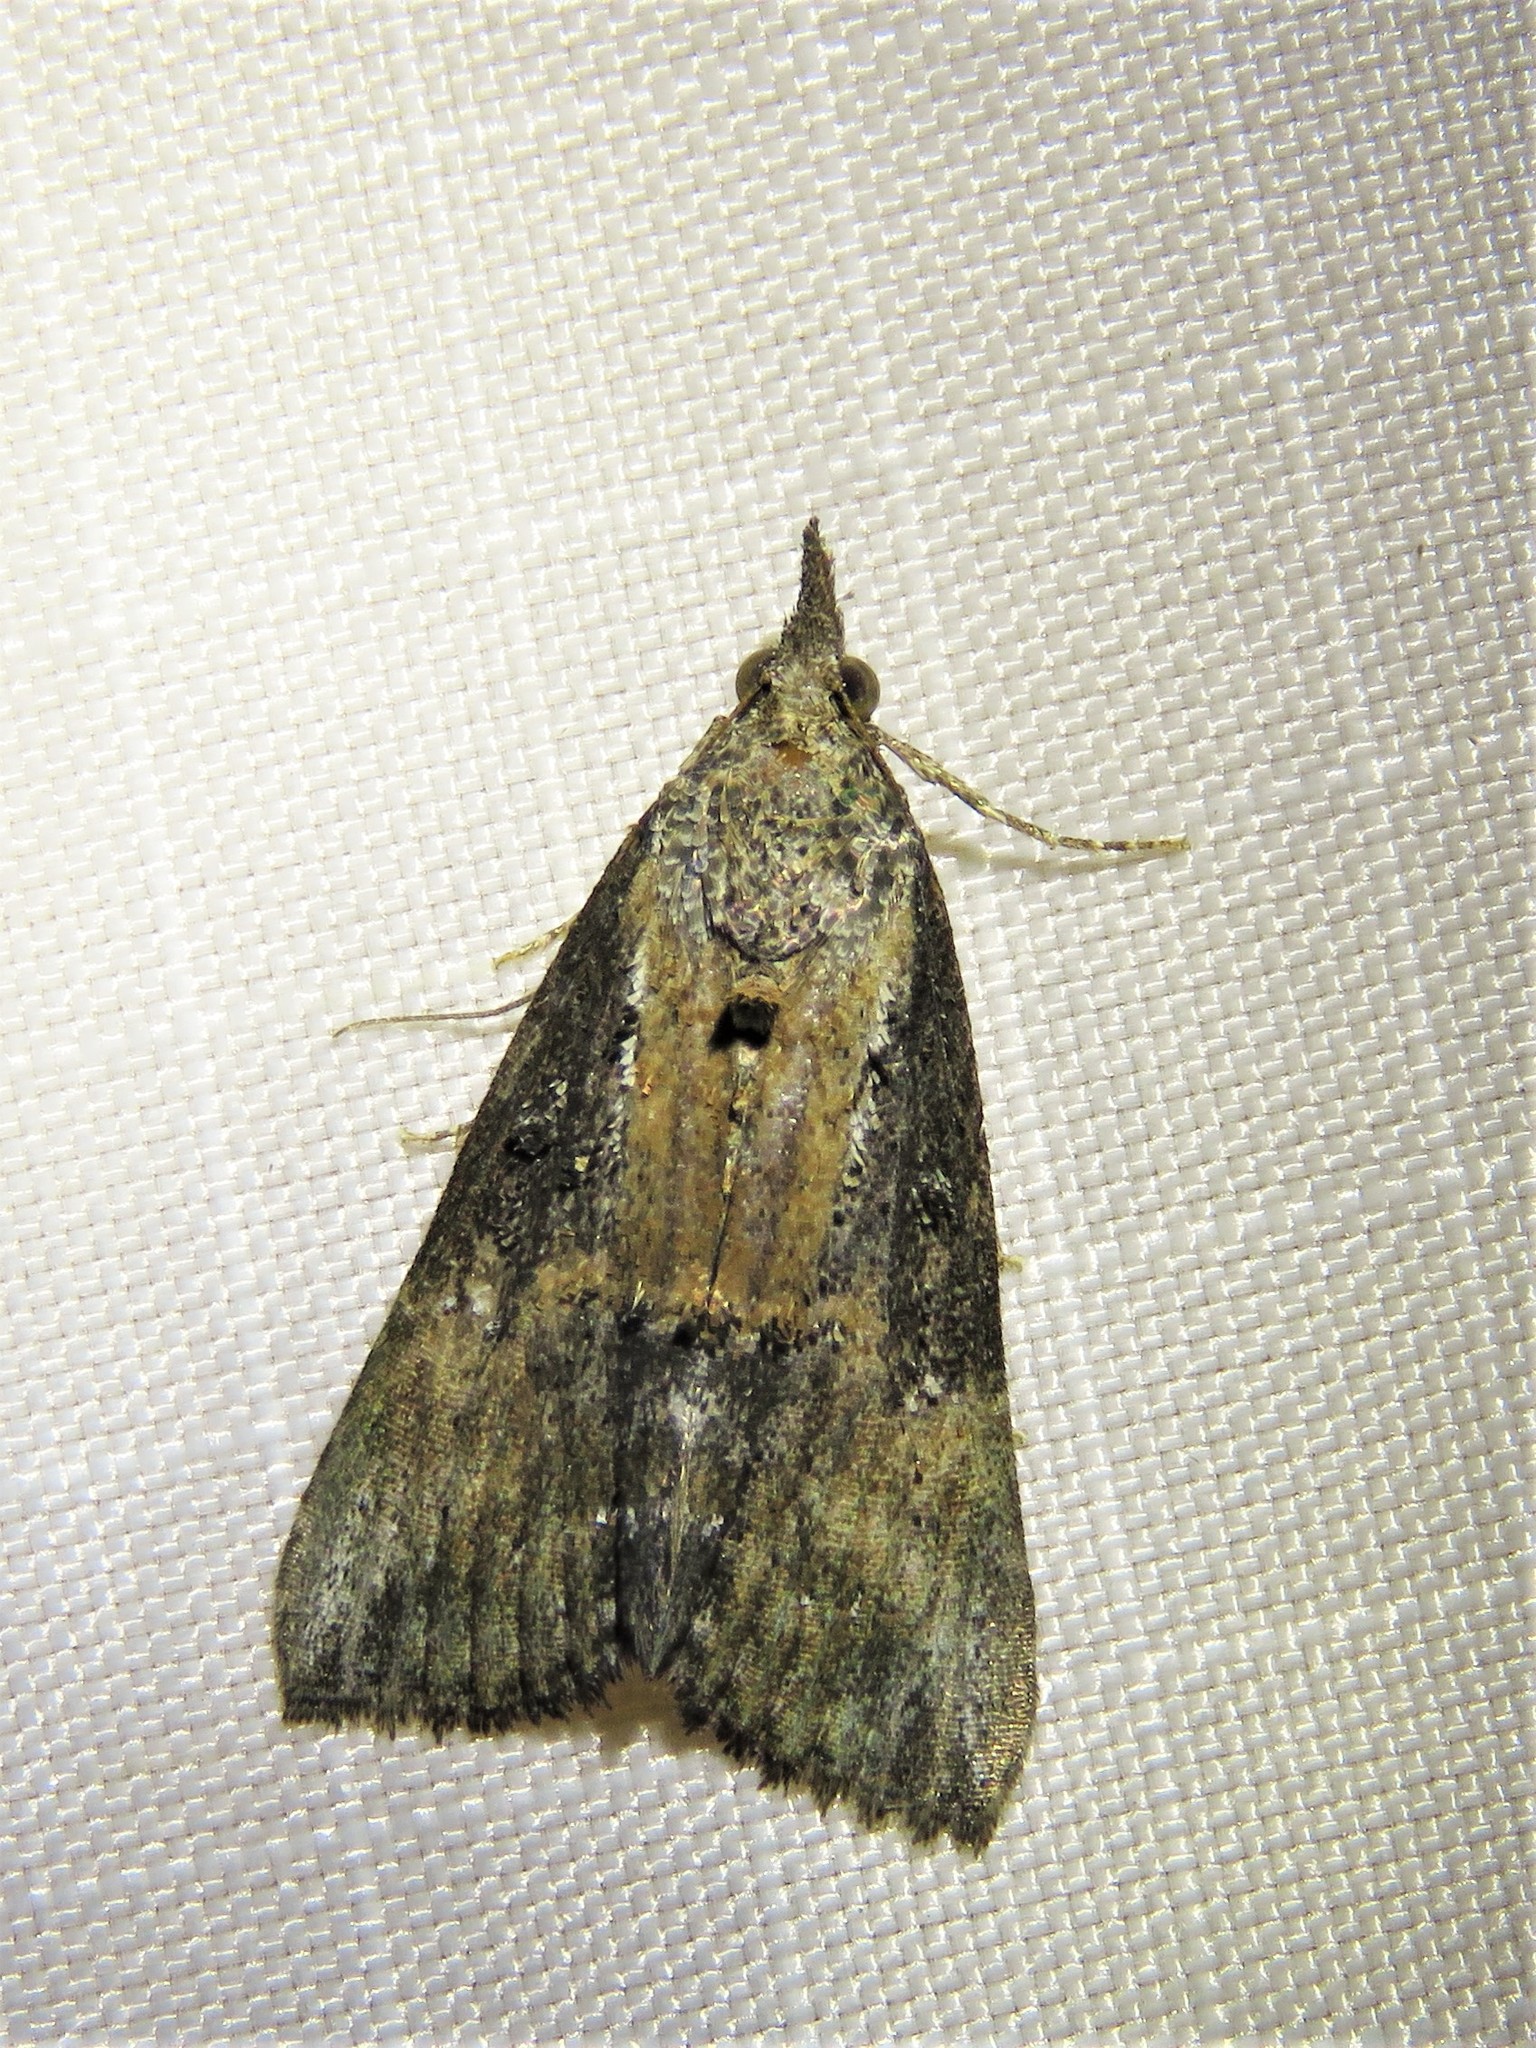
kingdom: Animalia
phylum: Arthropoda
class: Insecta
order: Lepidoptera
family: Erebidae
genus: Hypena
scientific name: Hypena scabra
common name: Green cloverworm
